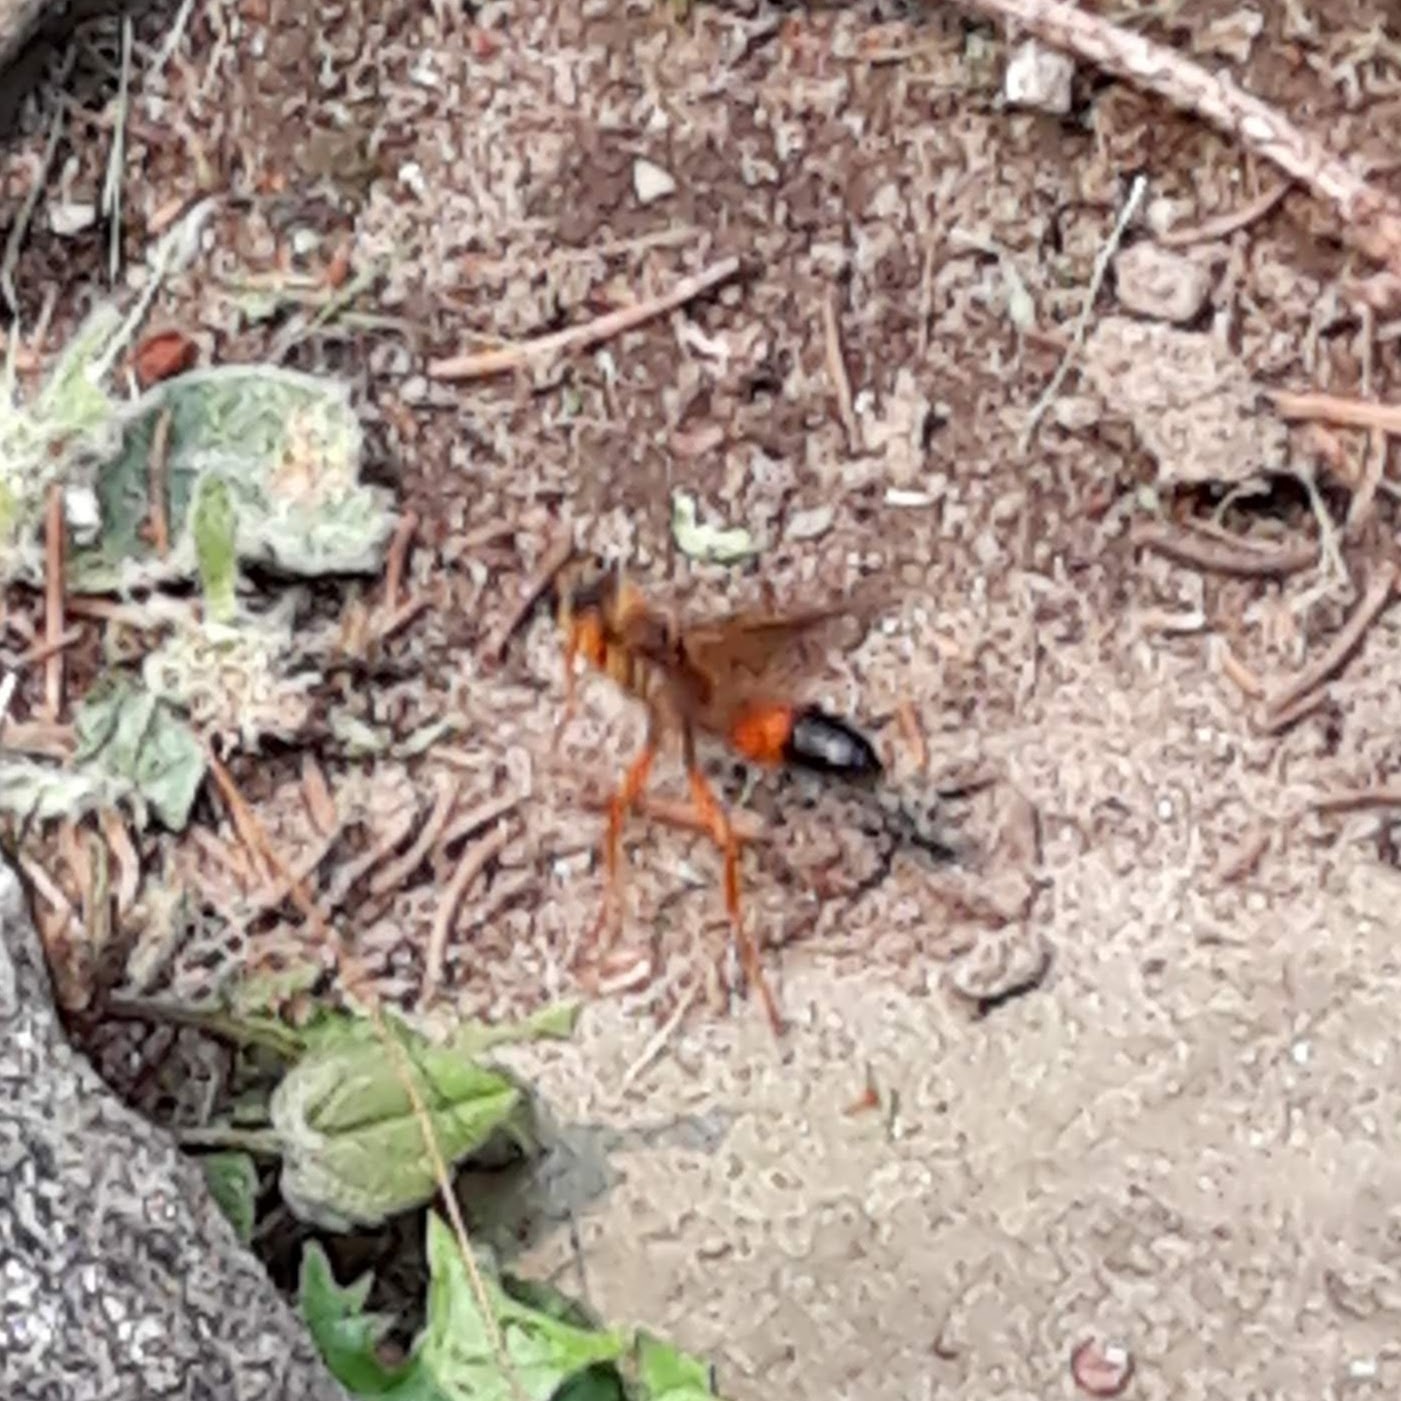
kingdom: Animalia
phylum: Arthropoda
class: Insecta
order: Hymenoptera
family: Sphecidae
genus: Sphex
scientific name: Sphex ichneumoneus
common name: Great golden digger wasp
